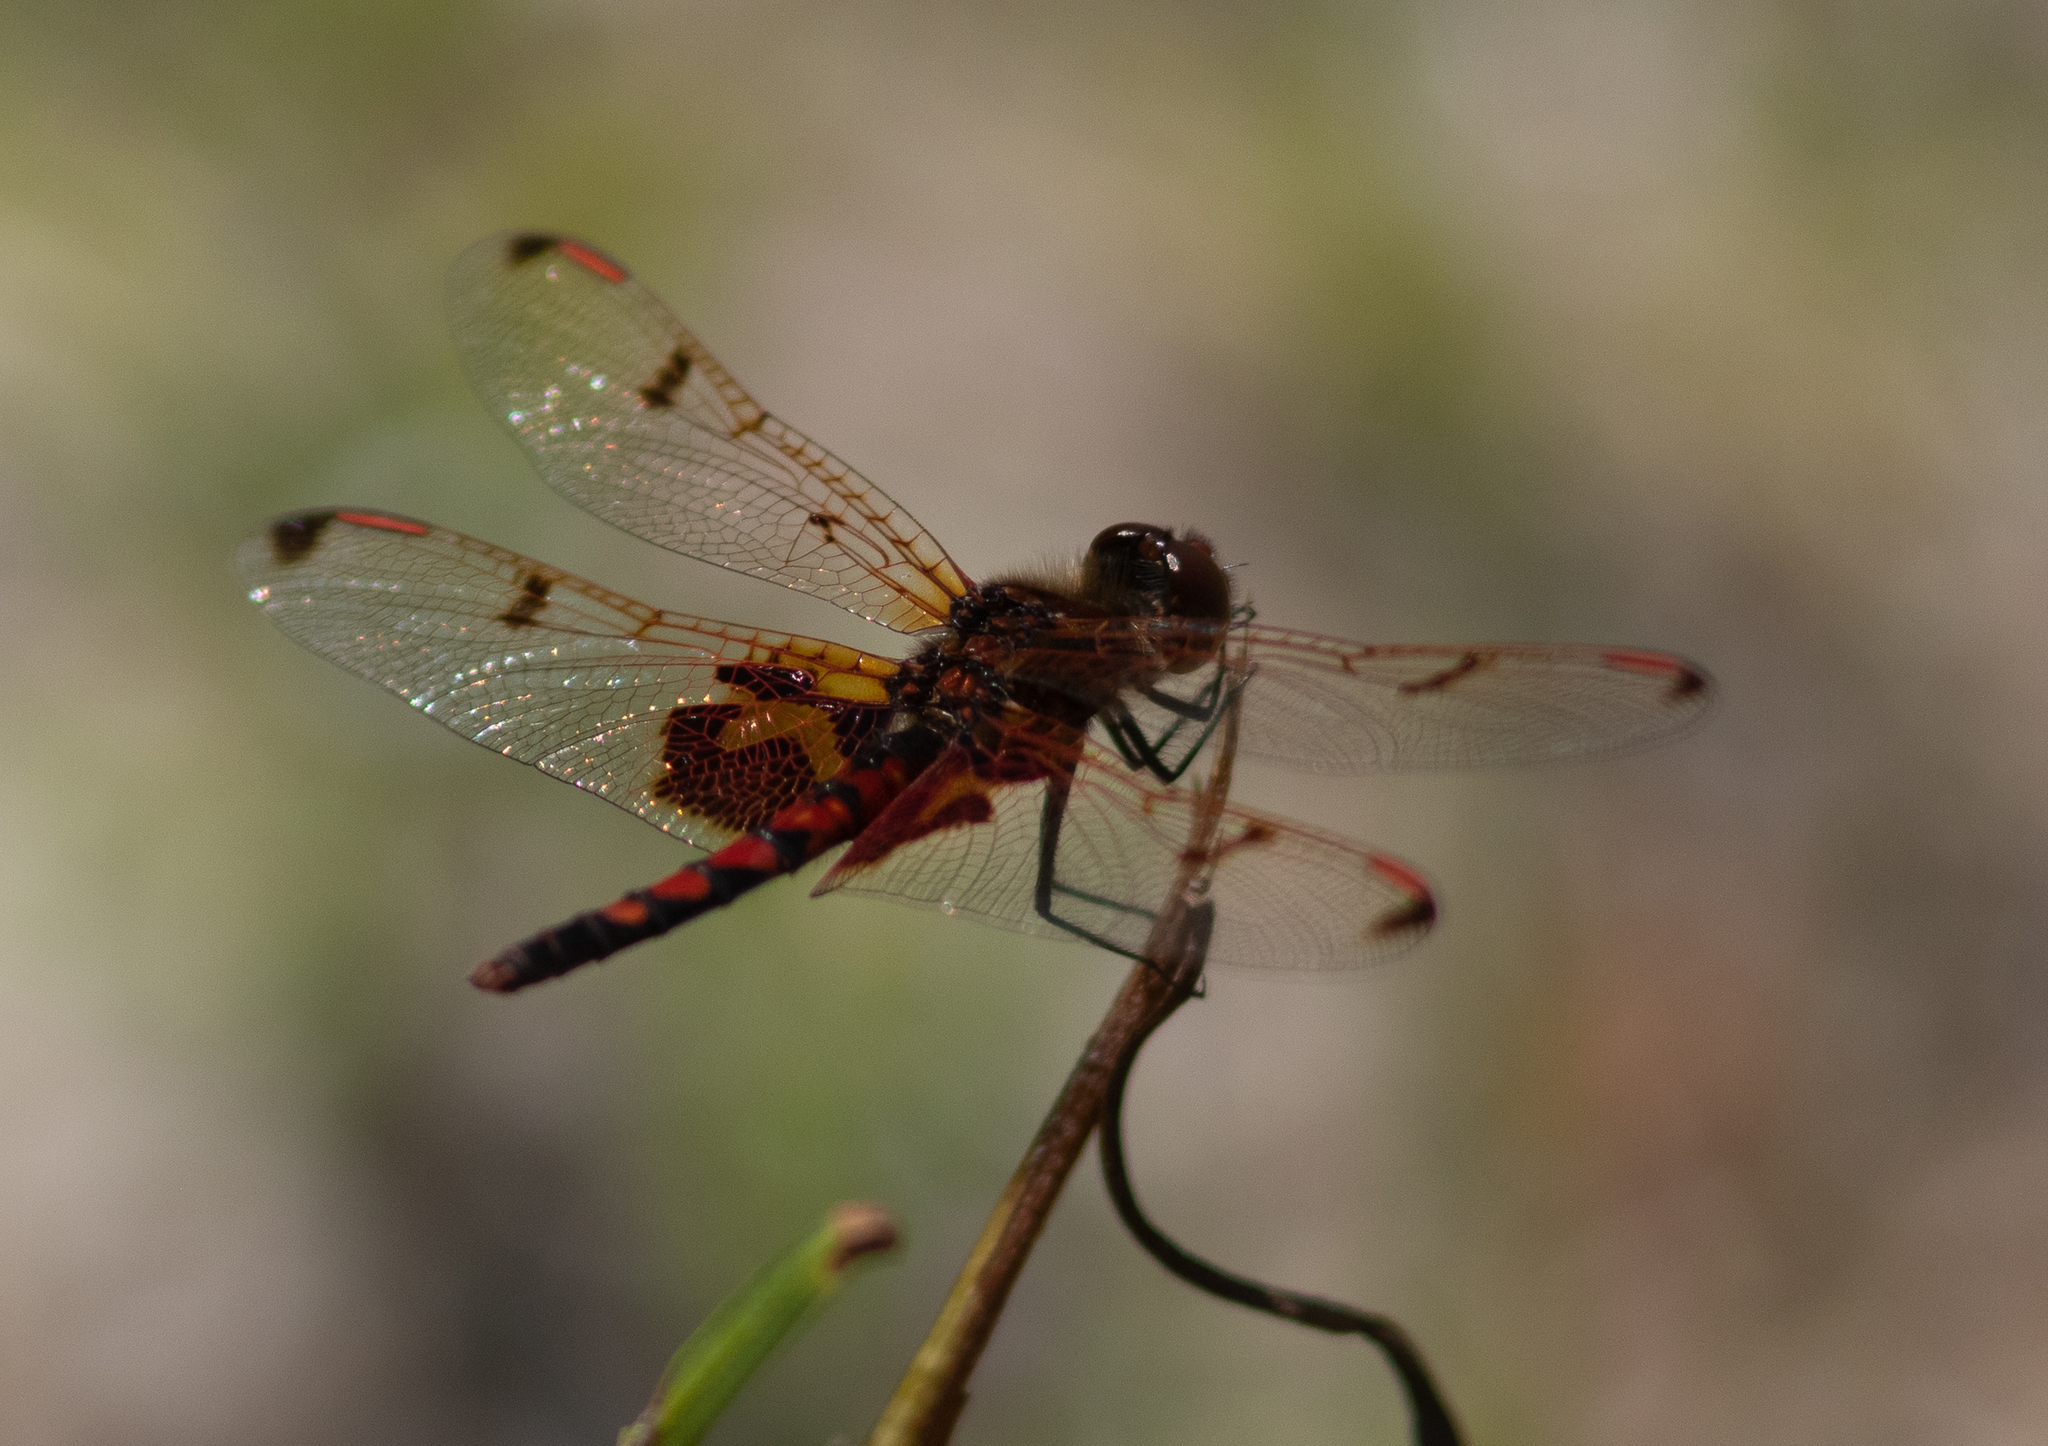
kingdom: Animalia
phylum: Arthropoda
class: Insecta
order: Odonata
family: Libellulidae
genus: Celithemis
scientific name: Celithemis elisa
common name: Calico pennant
